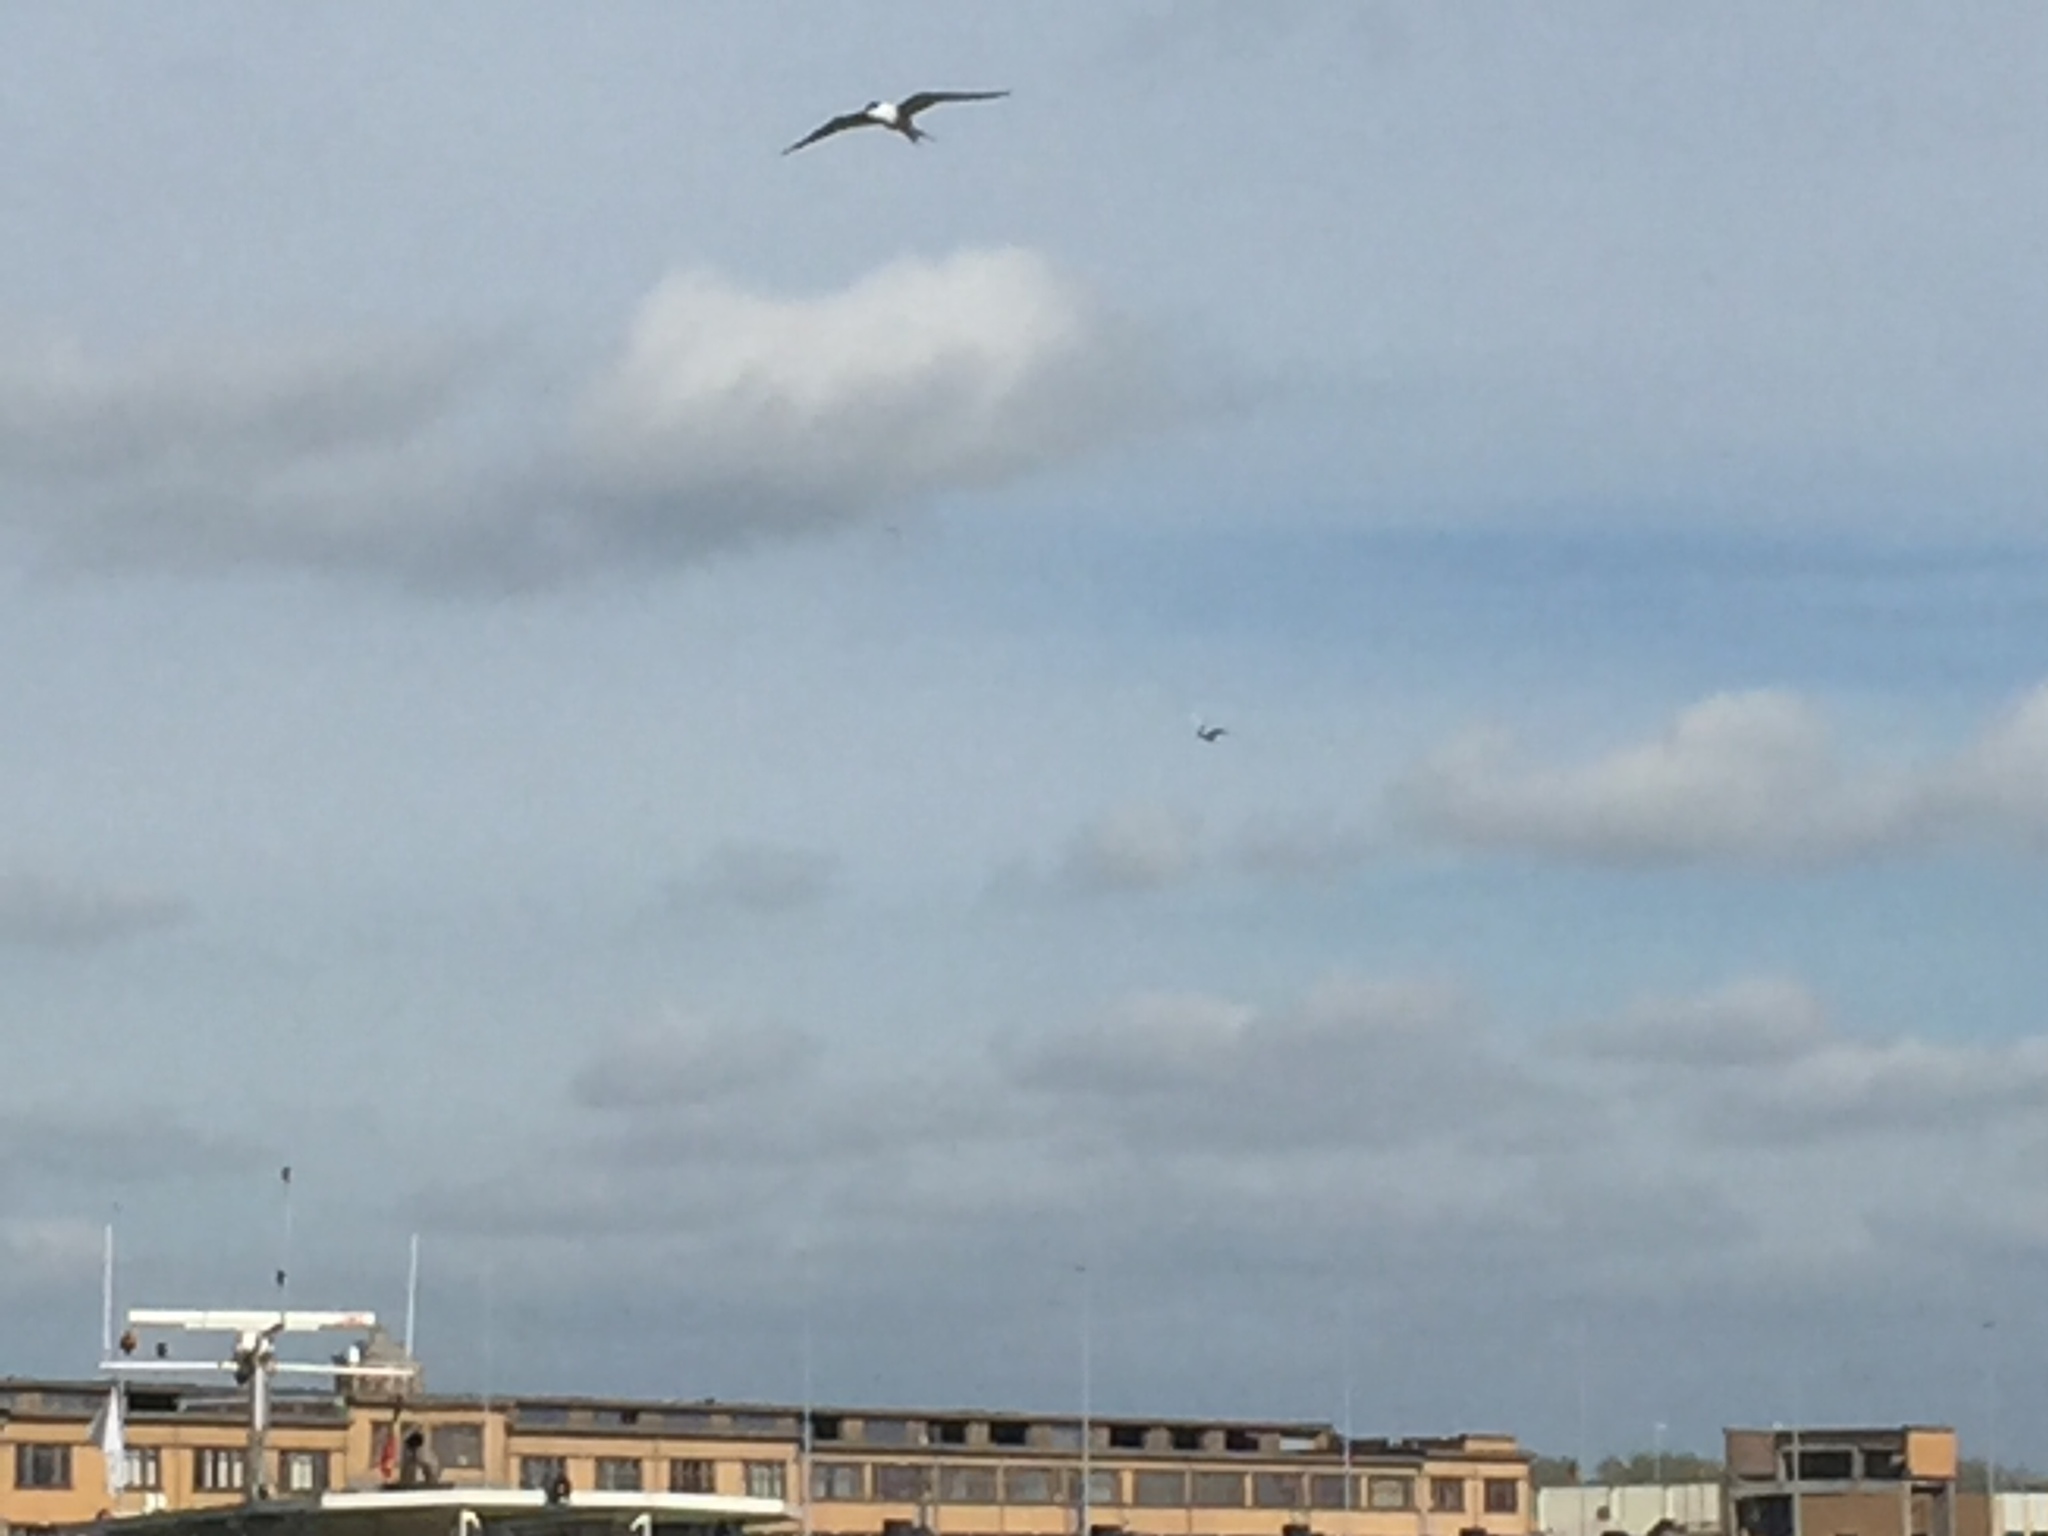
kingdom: Animalia
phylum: Chordata
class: Aves
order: Charadriiformes
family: Laridae
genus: Sterna
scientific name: Sterna hirundo
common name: Common tern
